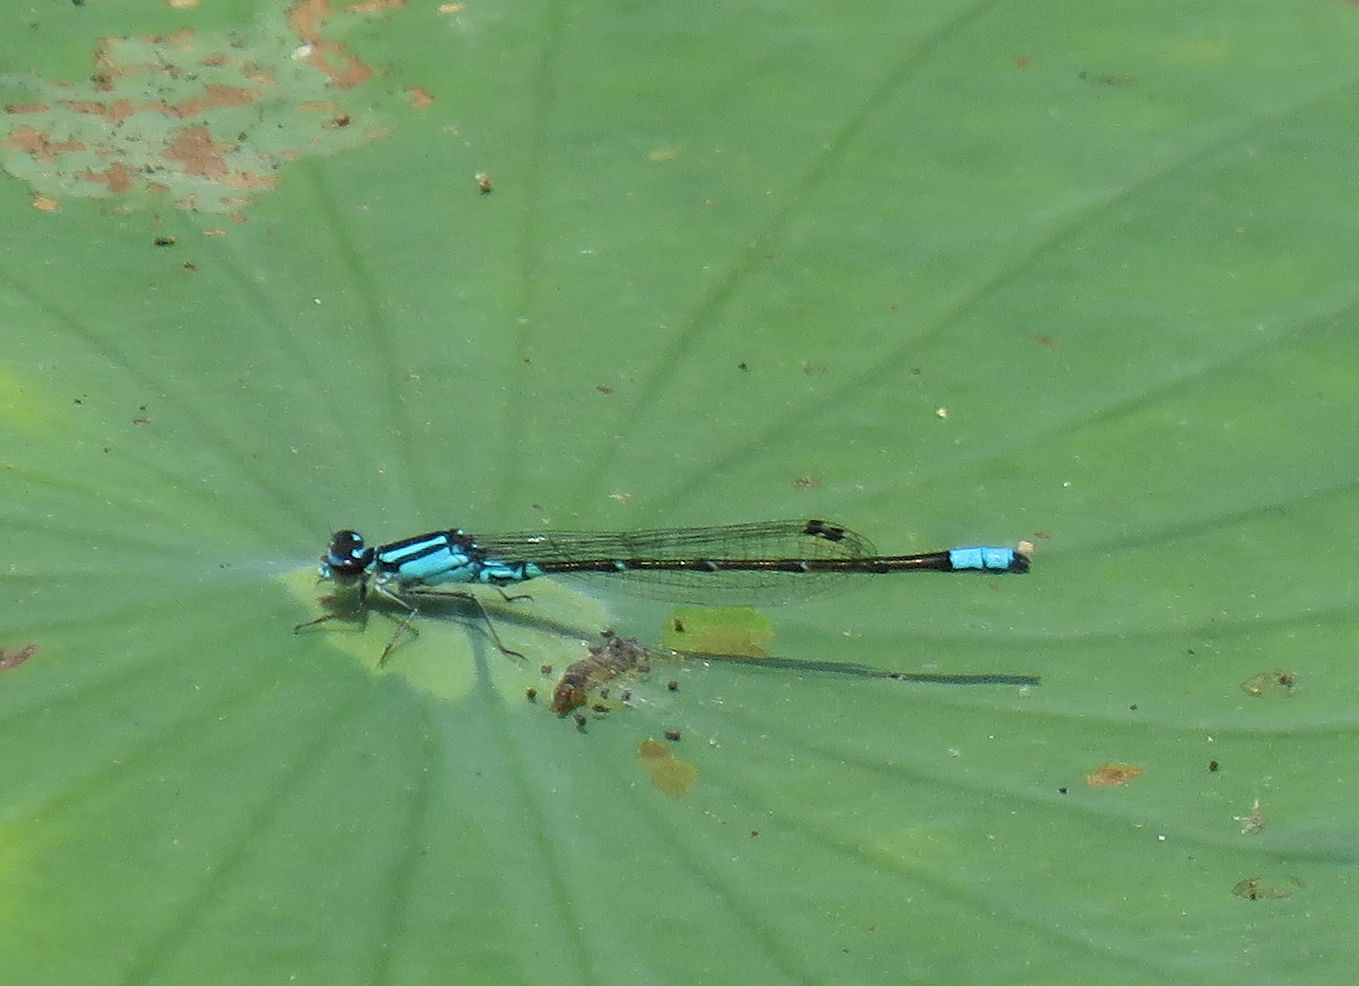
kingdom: Animalia
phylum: Arthropoda
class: Insecta
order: Odonata
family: Coenagrionidae
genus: Enallagma
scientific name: Enallagma geminatum
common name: Skimming bluet
